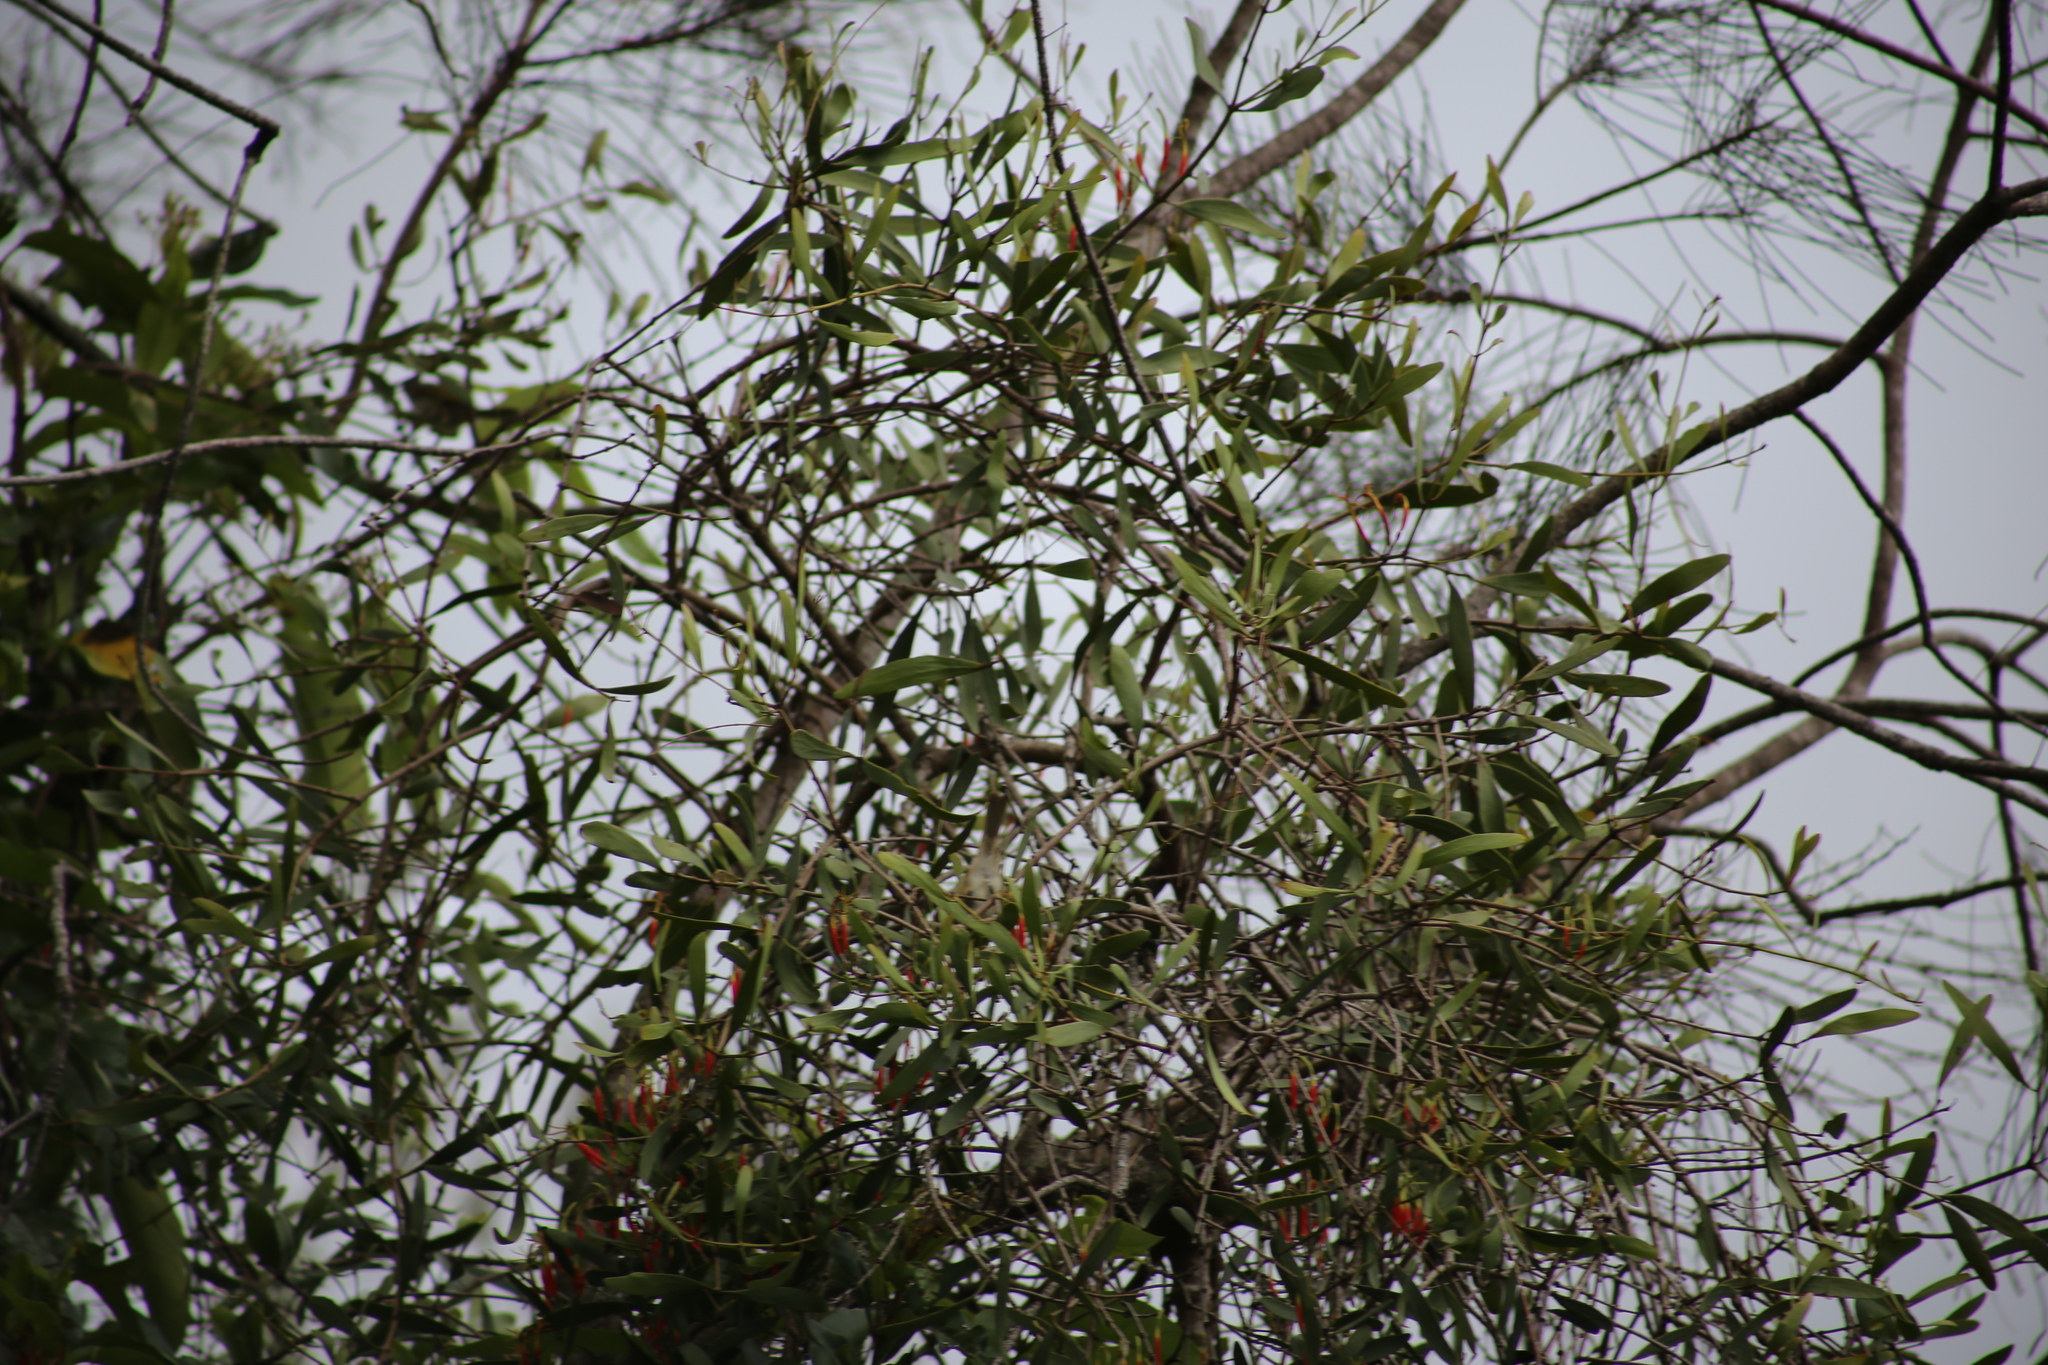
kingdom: Animalia
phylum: Chordata
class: Aves
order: Passeriformes
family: Meliphagidae
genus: Lichmera
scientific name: Lichmera indistincta
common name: Brown honeyeater
